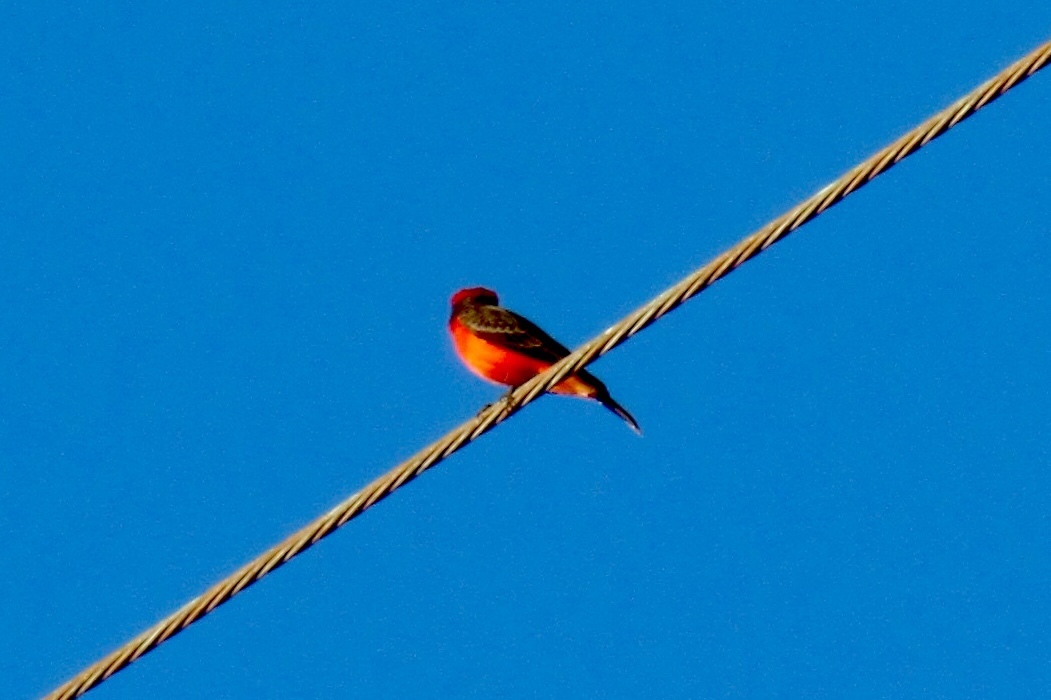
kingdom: Animalia
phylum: Chordata
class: Aves
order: Passeriformes
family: Tyrannidae
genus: Pyrocephalus
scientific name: Pyrocephalus rubinus
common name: Vermilion flycatcher
